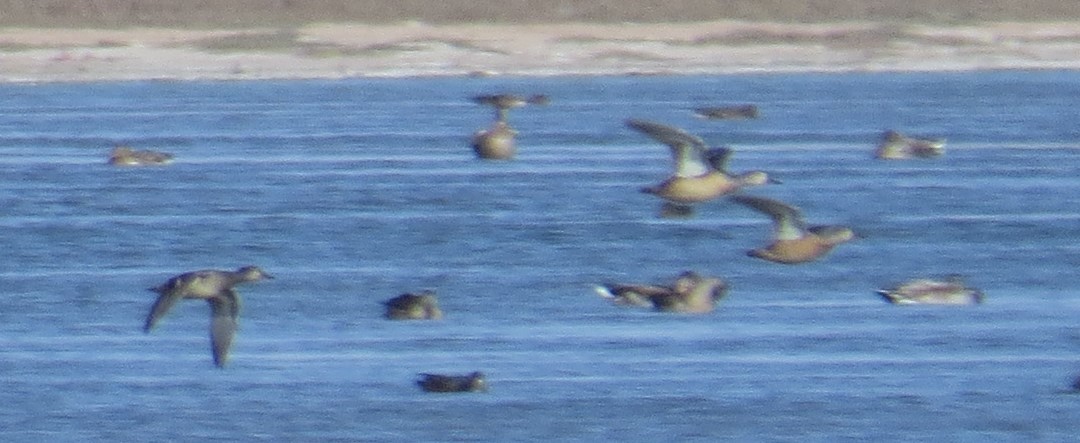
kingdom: Animalia
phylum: Chordata
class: Aves
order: Anseriformes
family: Anatidae
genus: Anas
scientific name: Anas platyrhynchos
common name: Mallard
